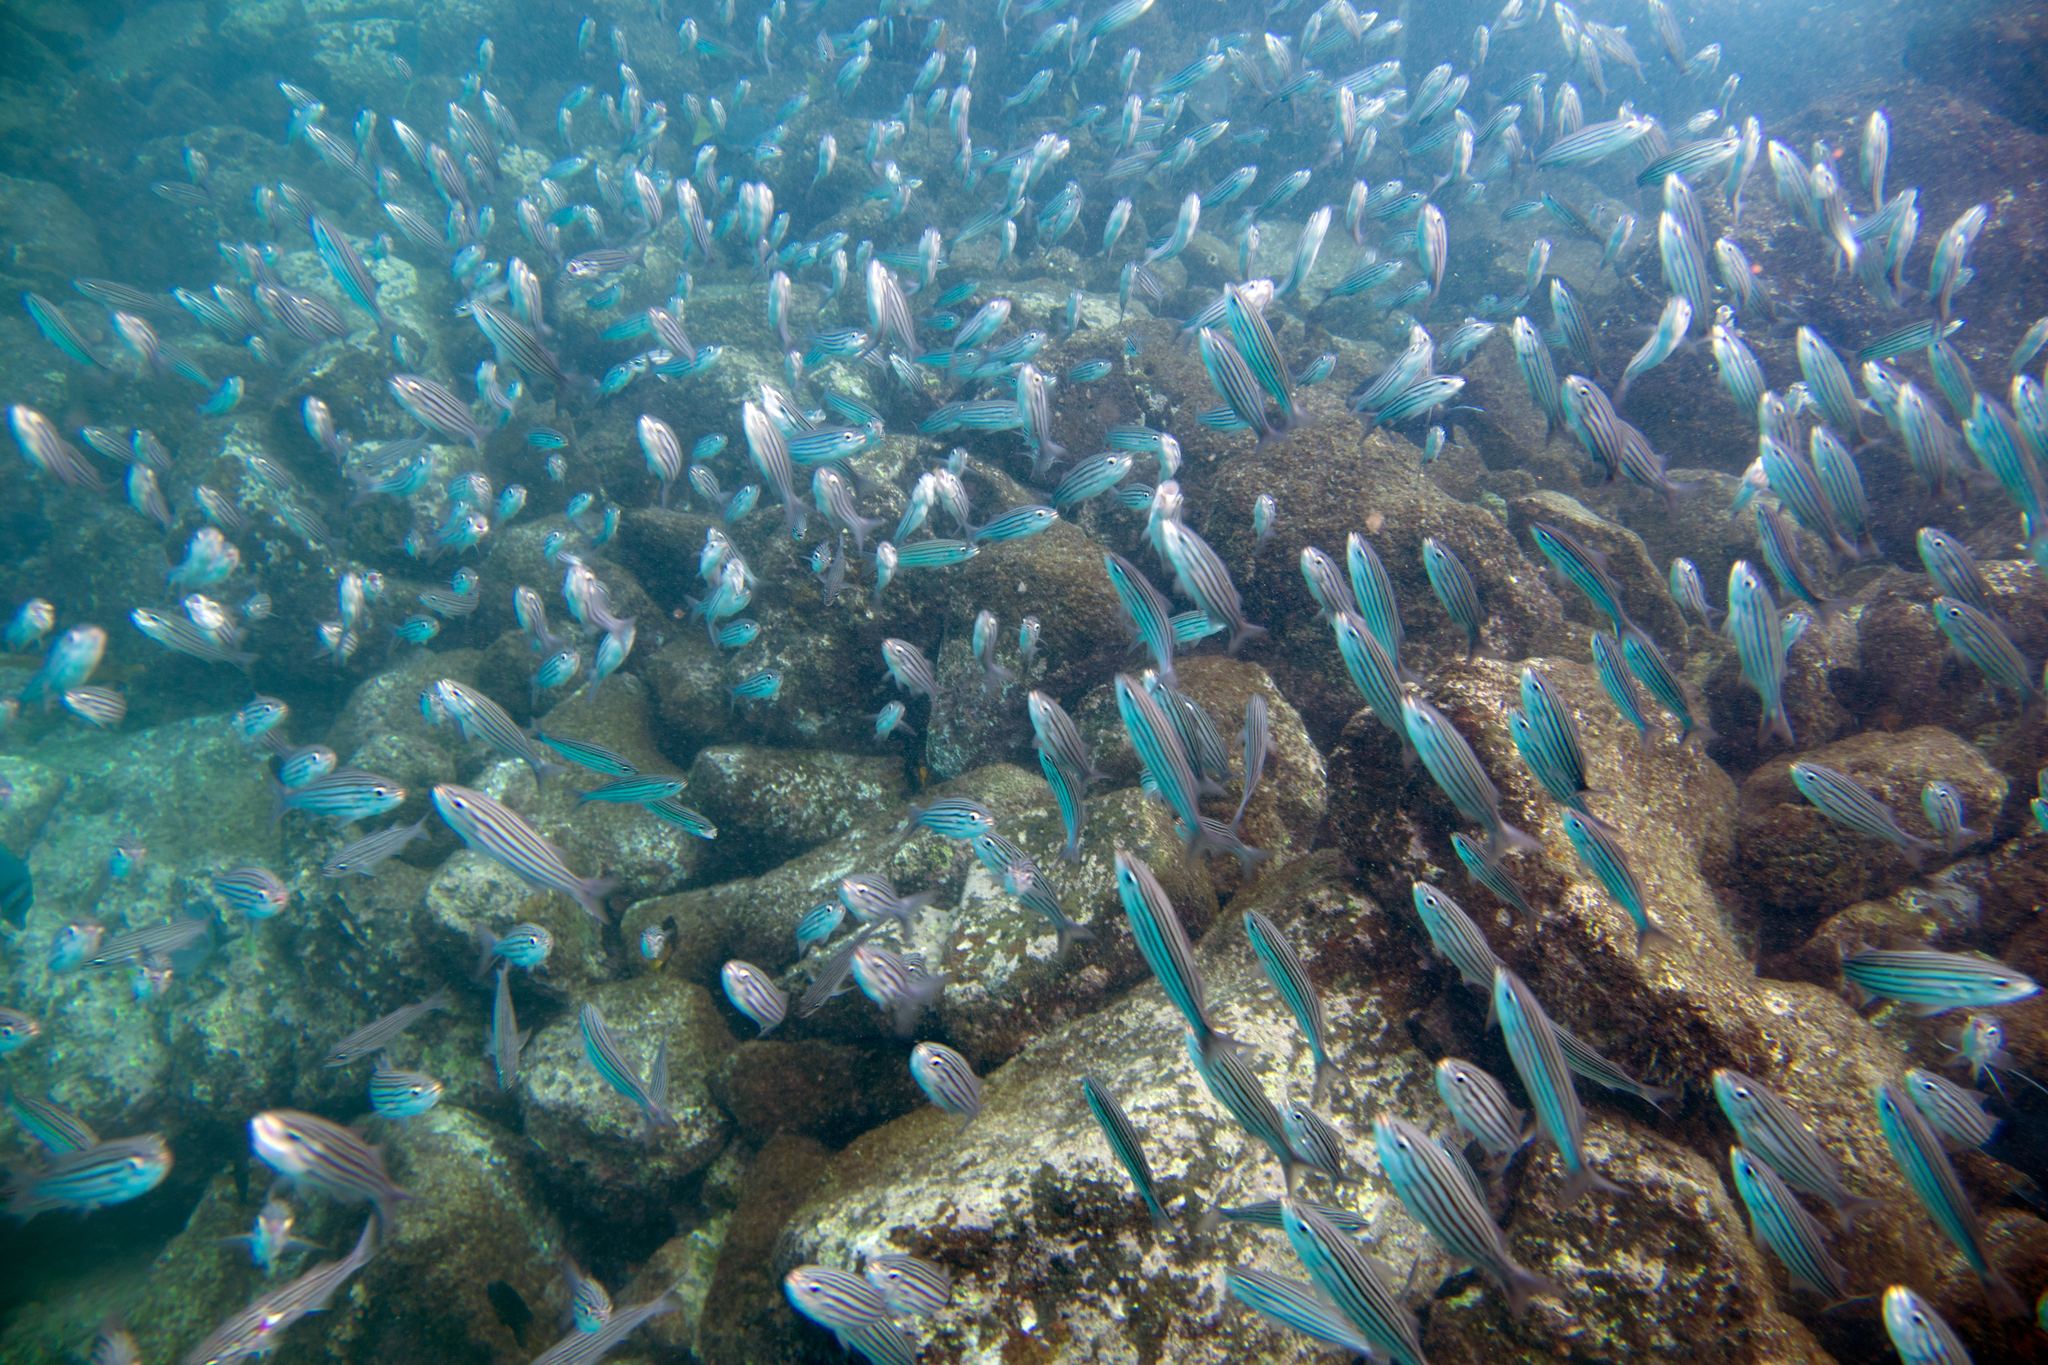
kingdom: Animalia
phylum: Chordata
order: Perciformes
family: Haemulidae
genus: Xenocys
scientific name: Xenocys jessiae
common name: Black-striped salema
